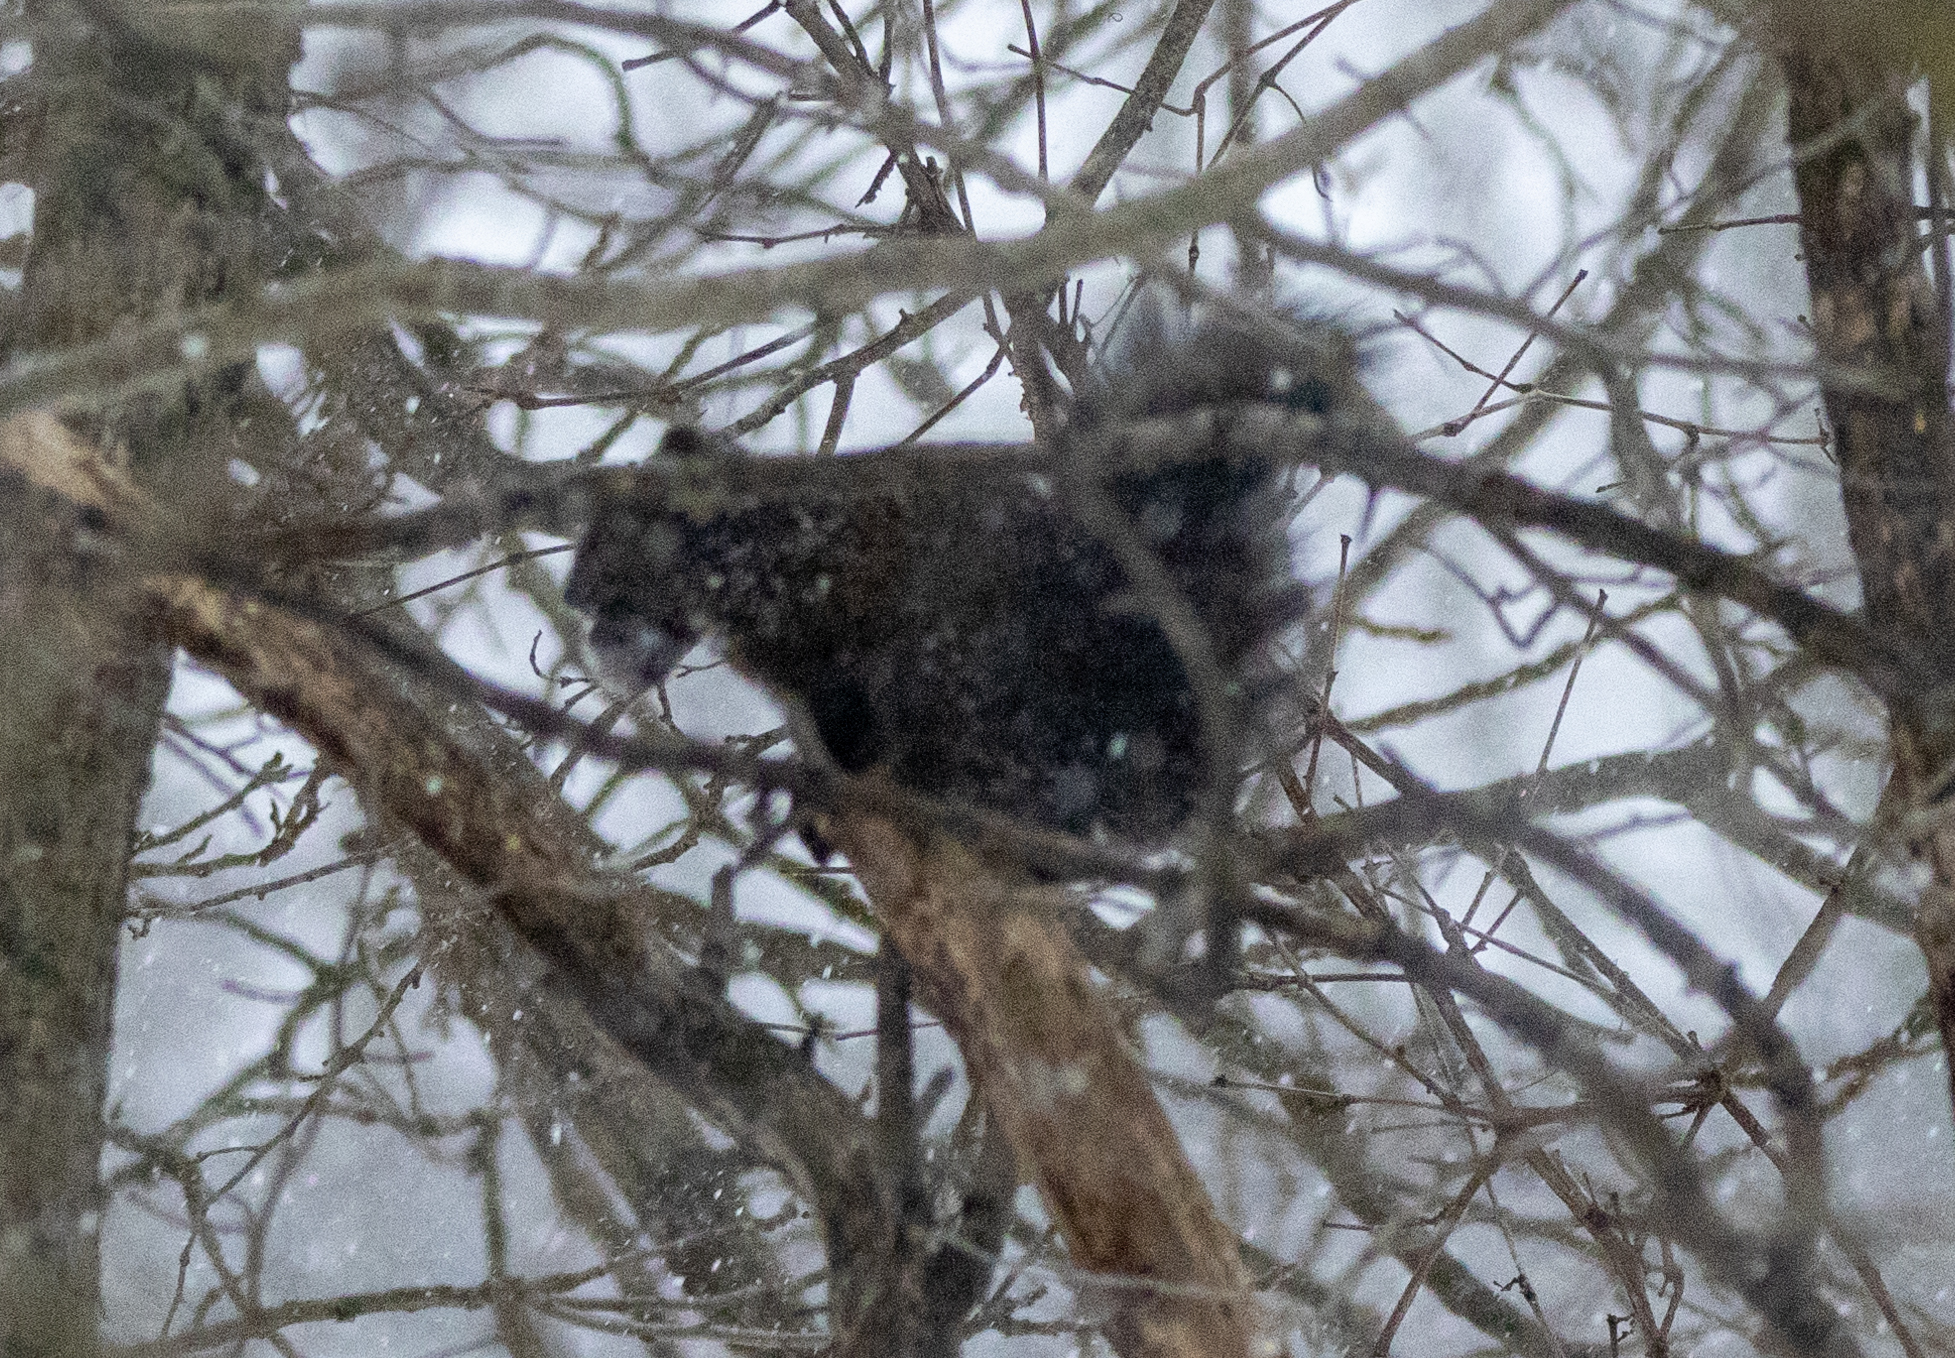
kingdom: Animalia
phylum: Chordata
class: Mammalia
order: Rodentia
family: Sciuridae
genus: Sciurus
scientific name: Sciurus carolinensis
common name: Eastern gray squirrel
